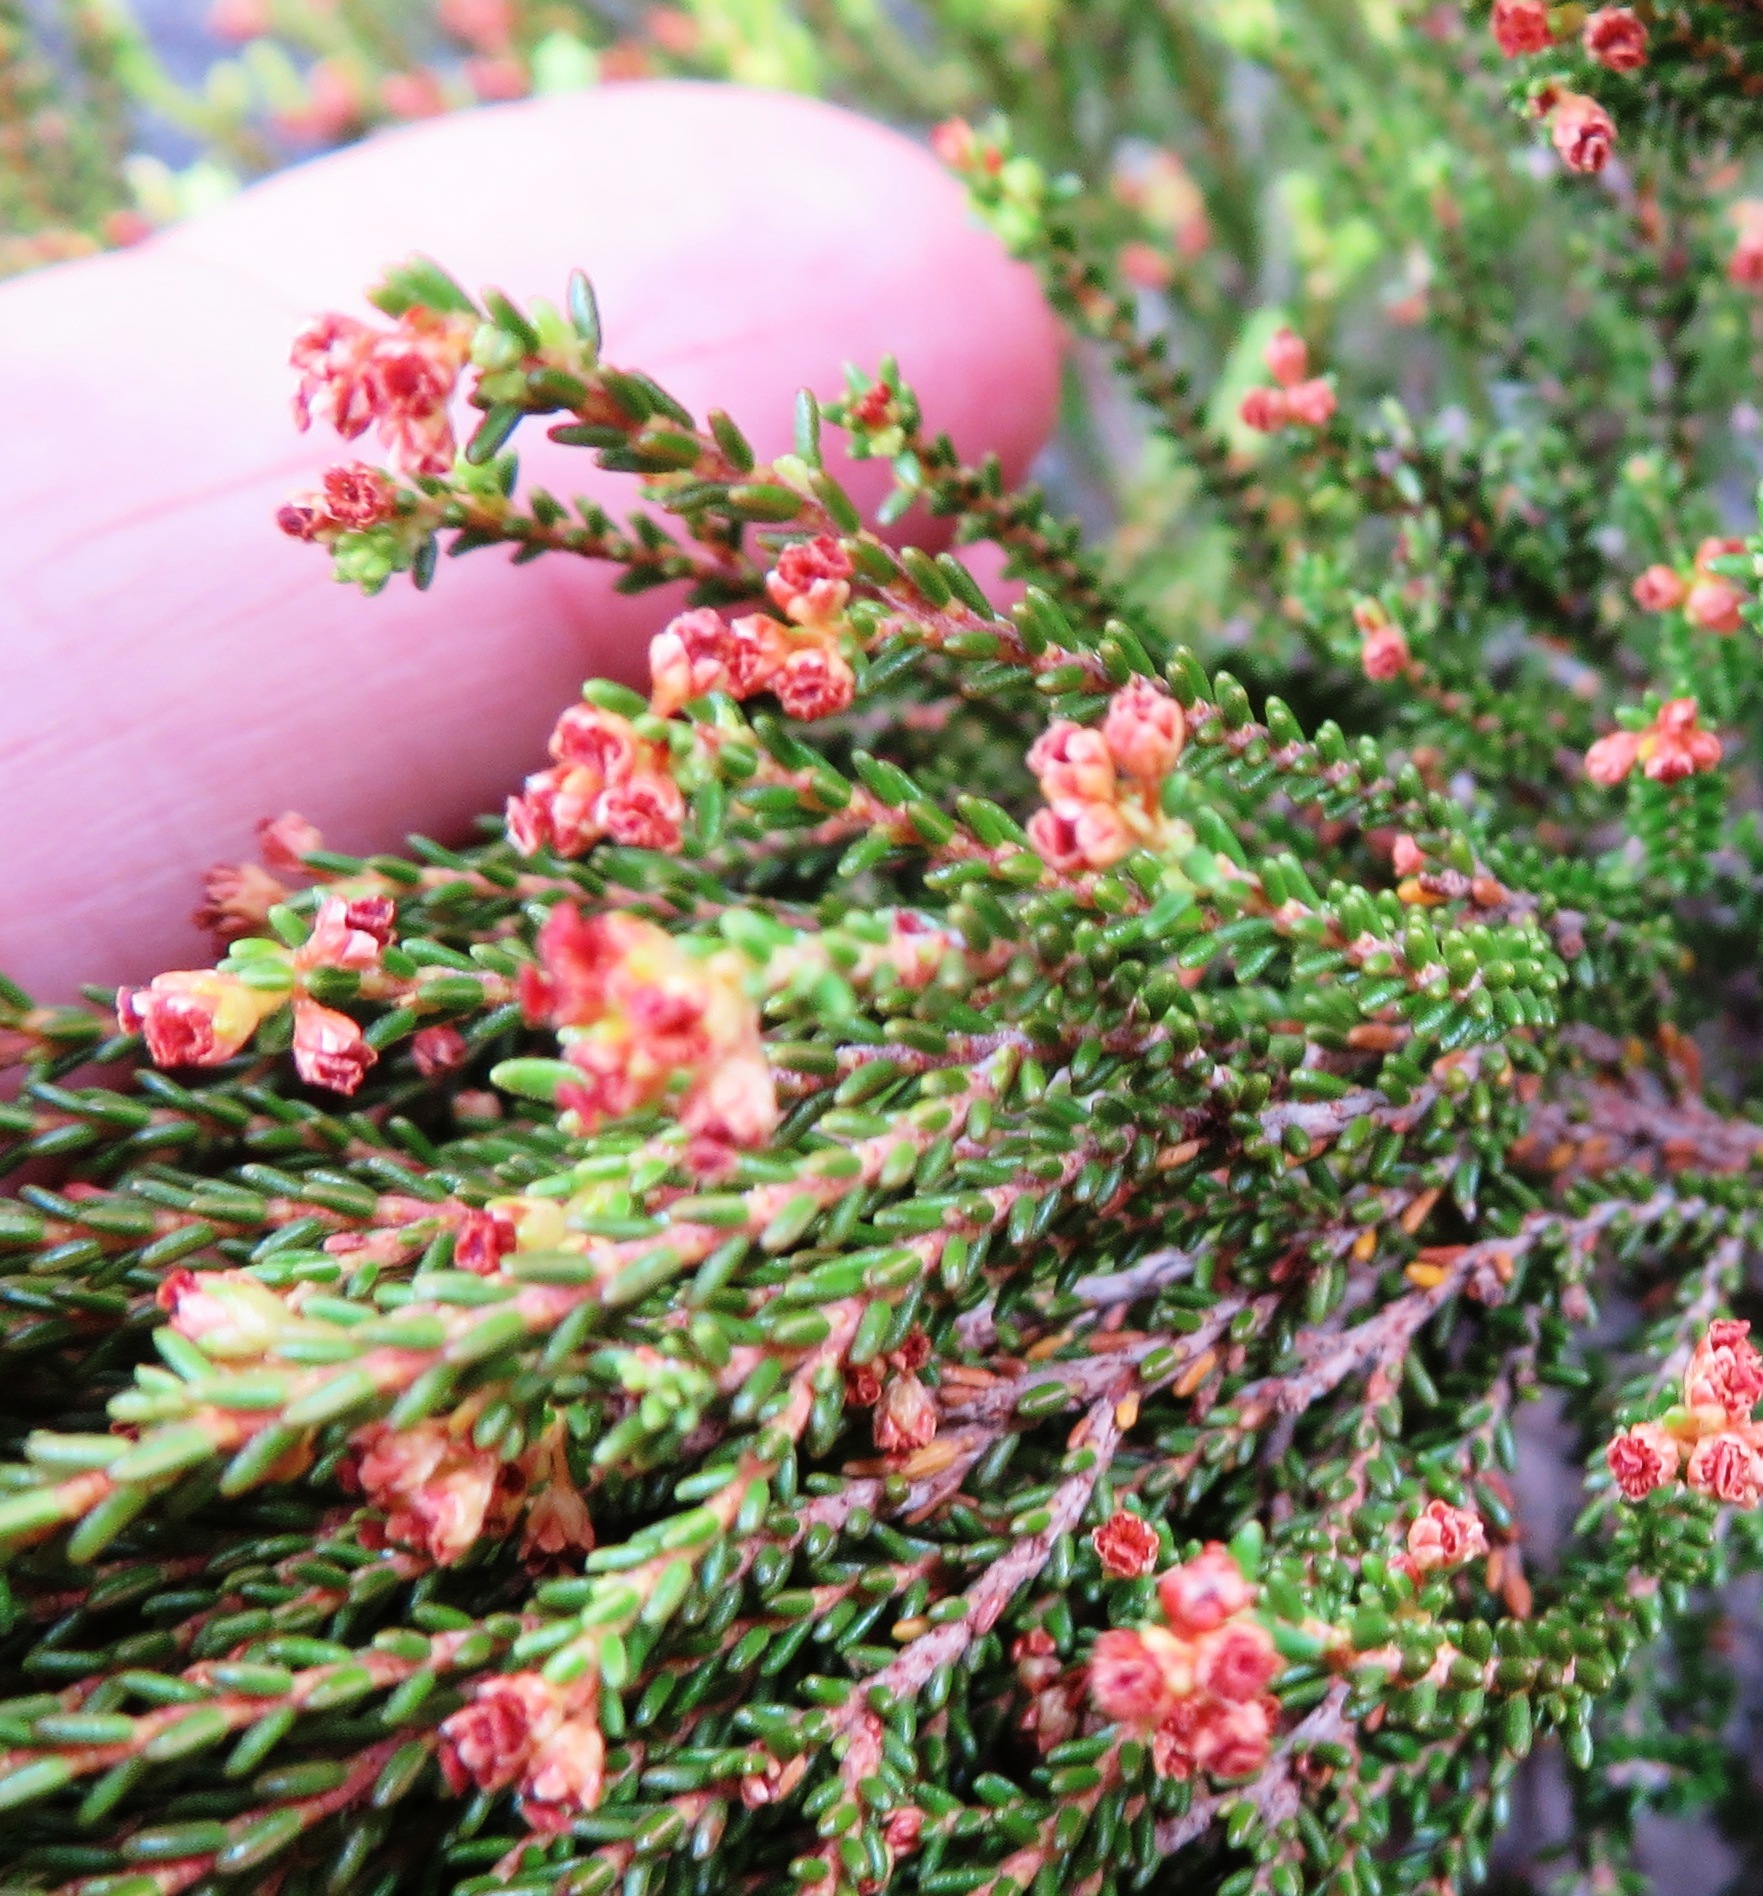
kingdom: Plantae
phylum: Tracheophyta
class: Magnoliopsida
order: Ericales
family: Ericaceae
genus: Erica
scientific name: Erica tristis
